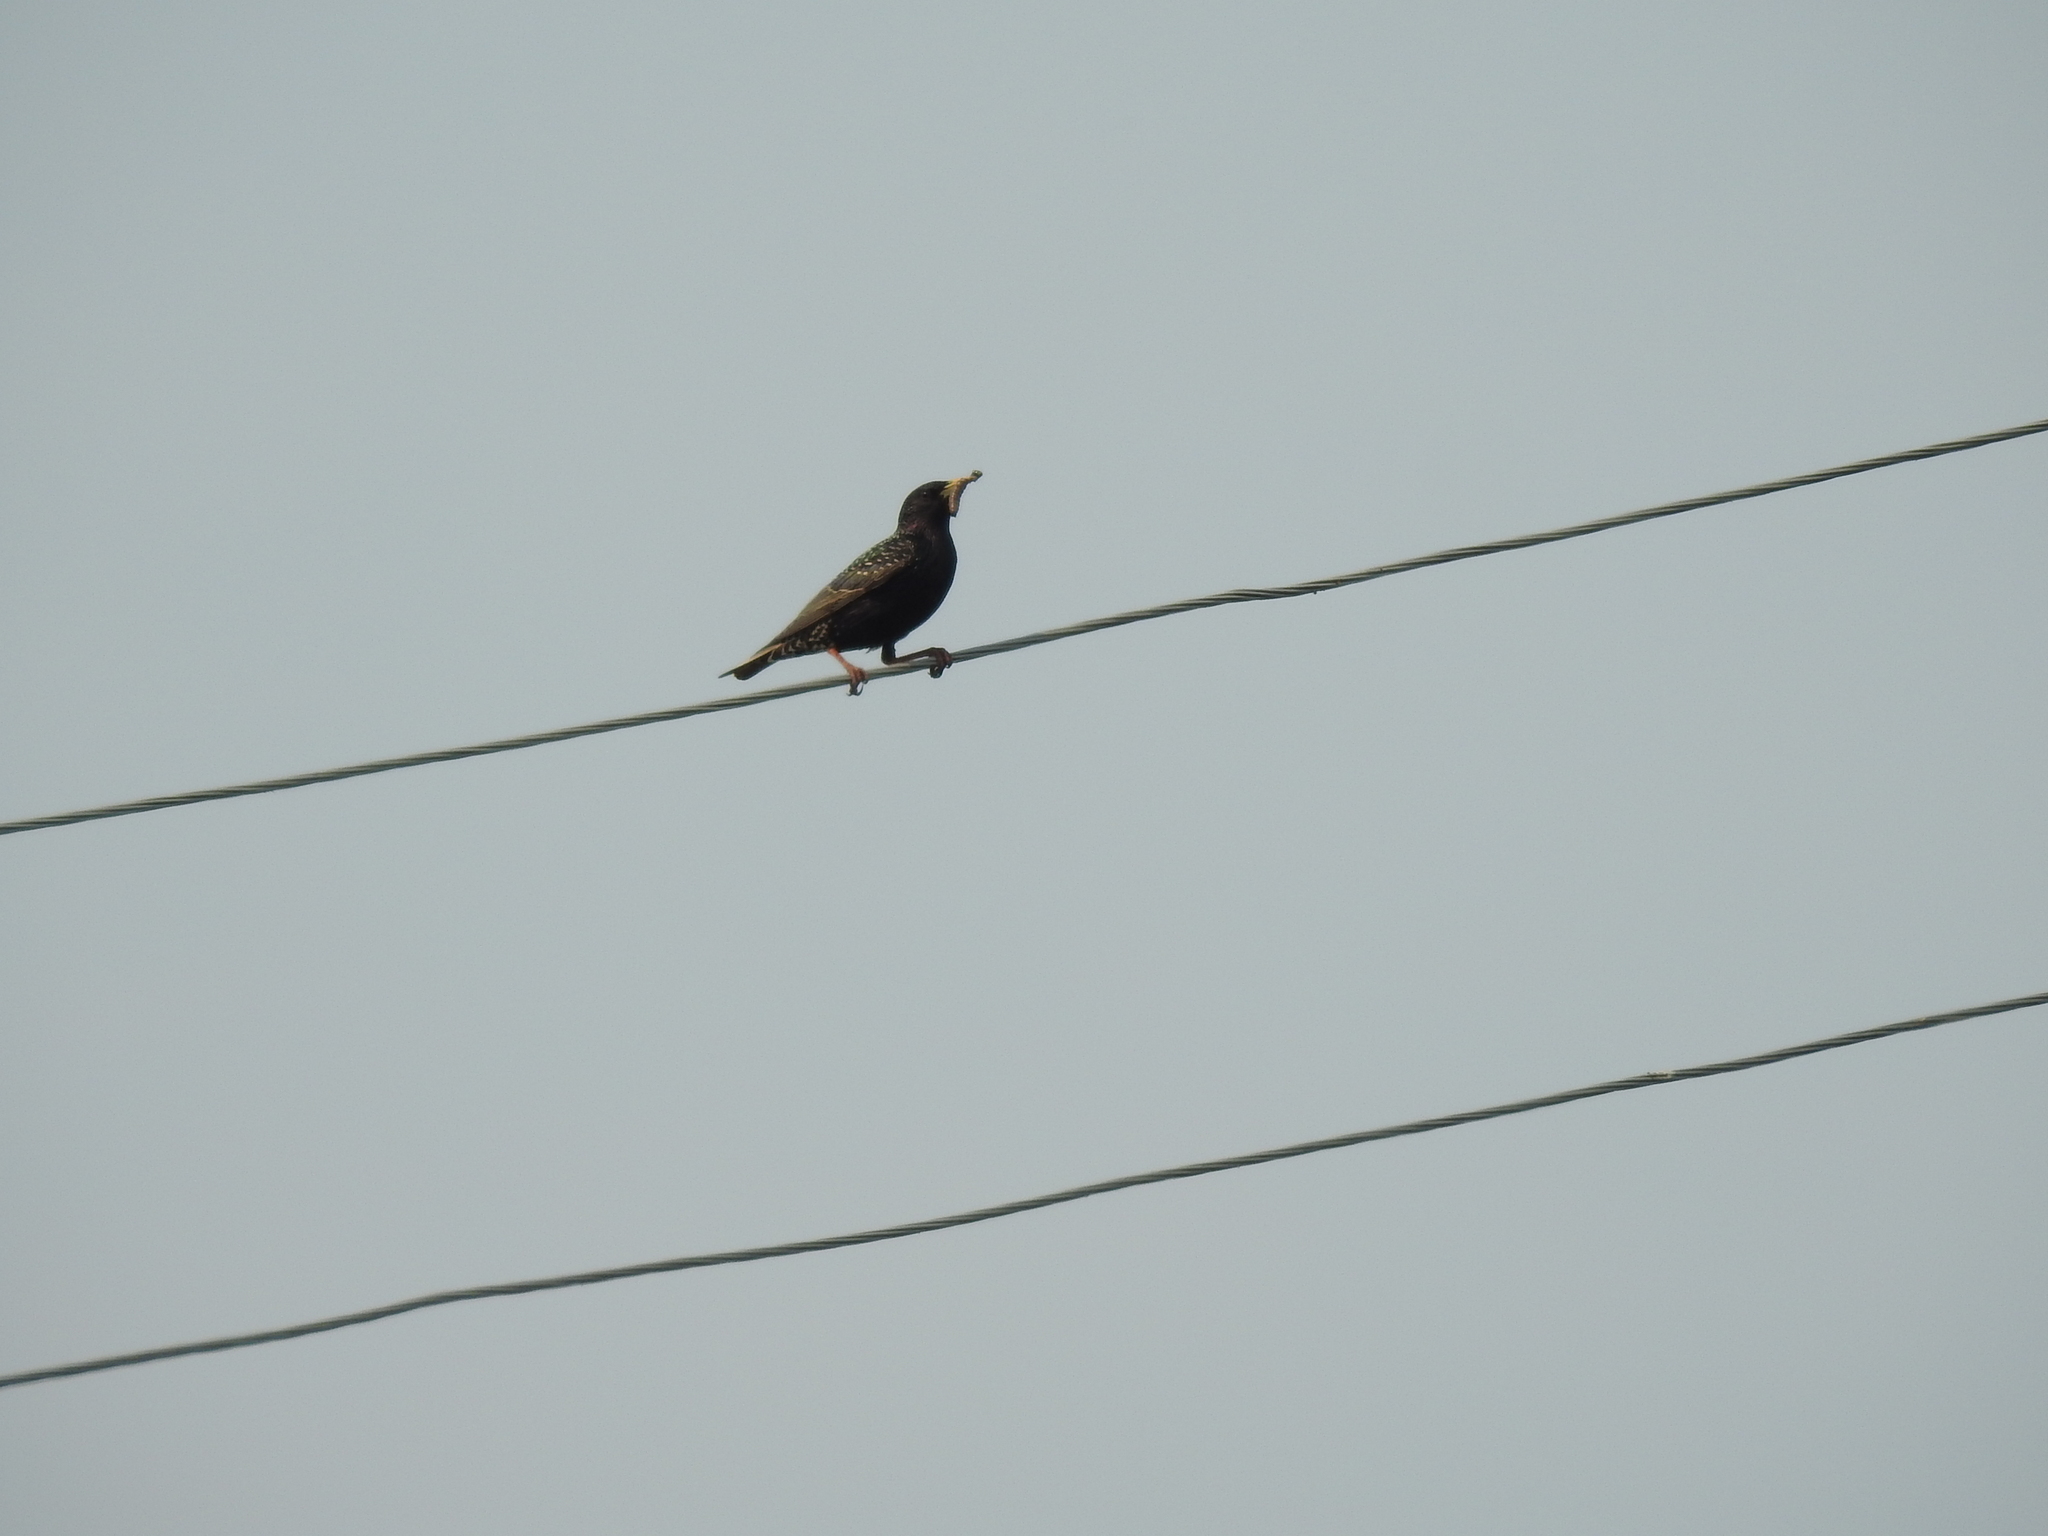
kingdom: Animalia
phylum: Chordata
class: Aves
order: Passeriformes
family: Sturnidae
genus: Sturnus
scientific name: Sturnus vulgaris
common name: Common starling
